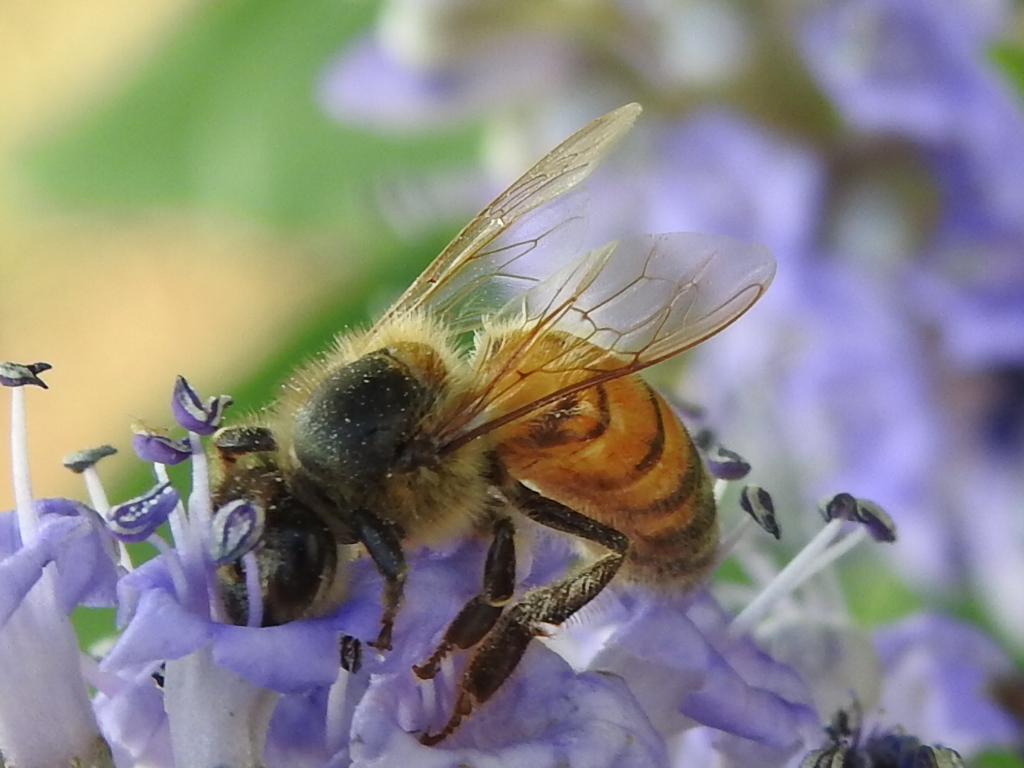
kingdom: Animalia
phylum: Arthropoda
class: Insecta
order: Hymenoptera
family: Apidae
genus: Apis
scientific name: Apis mellifera
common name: Honey bee
